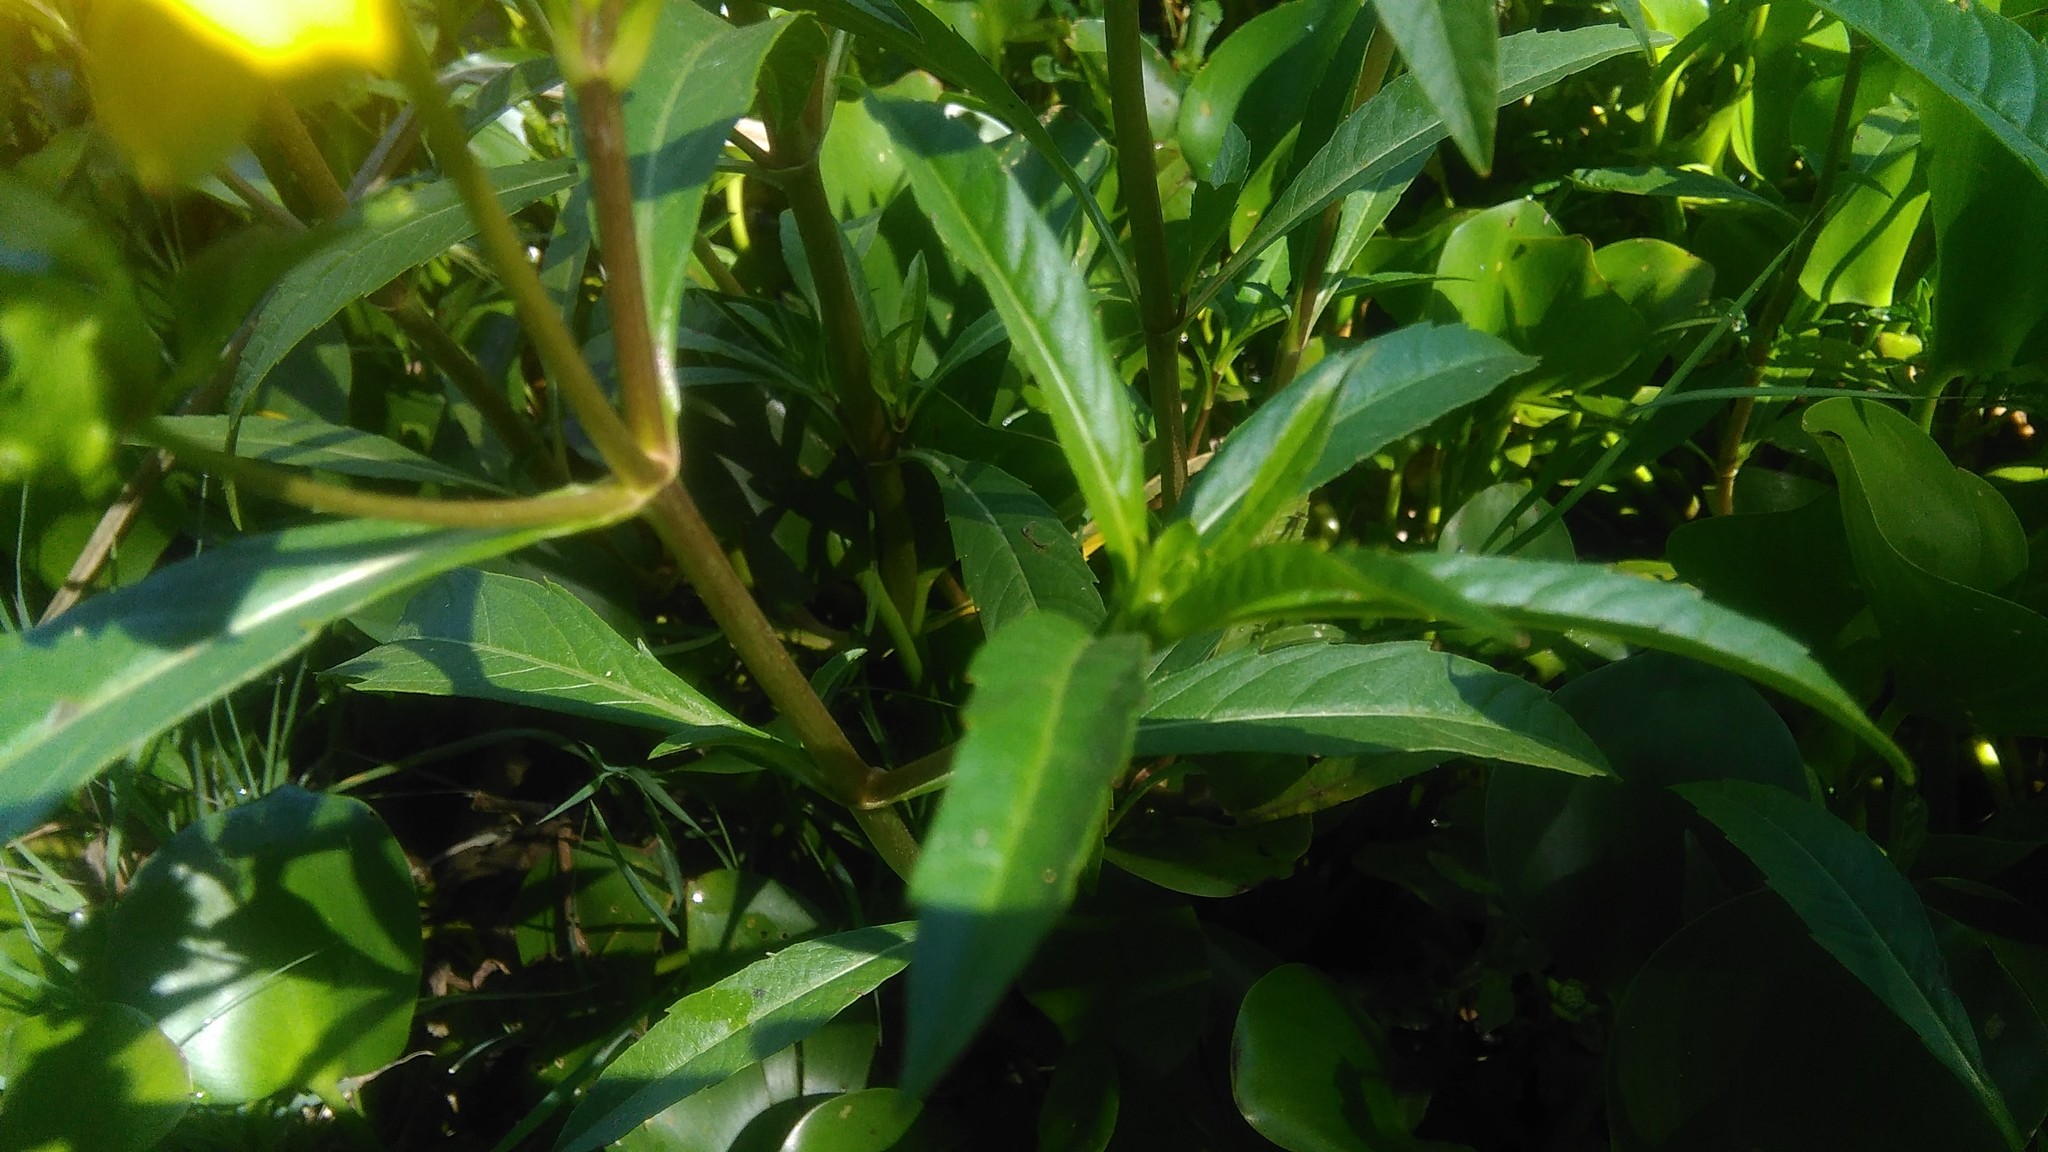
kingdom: Plantae
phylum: Tracheophyta
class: Magnoliopsida
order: Asterales
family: Asteraceae
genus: Bidens
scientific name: Bidens laevis
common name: Larger bur-marigold
